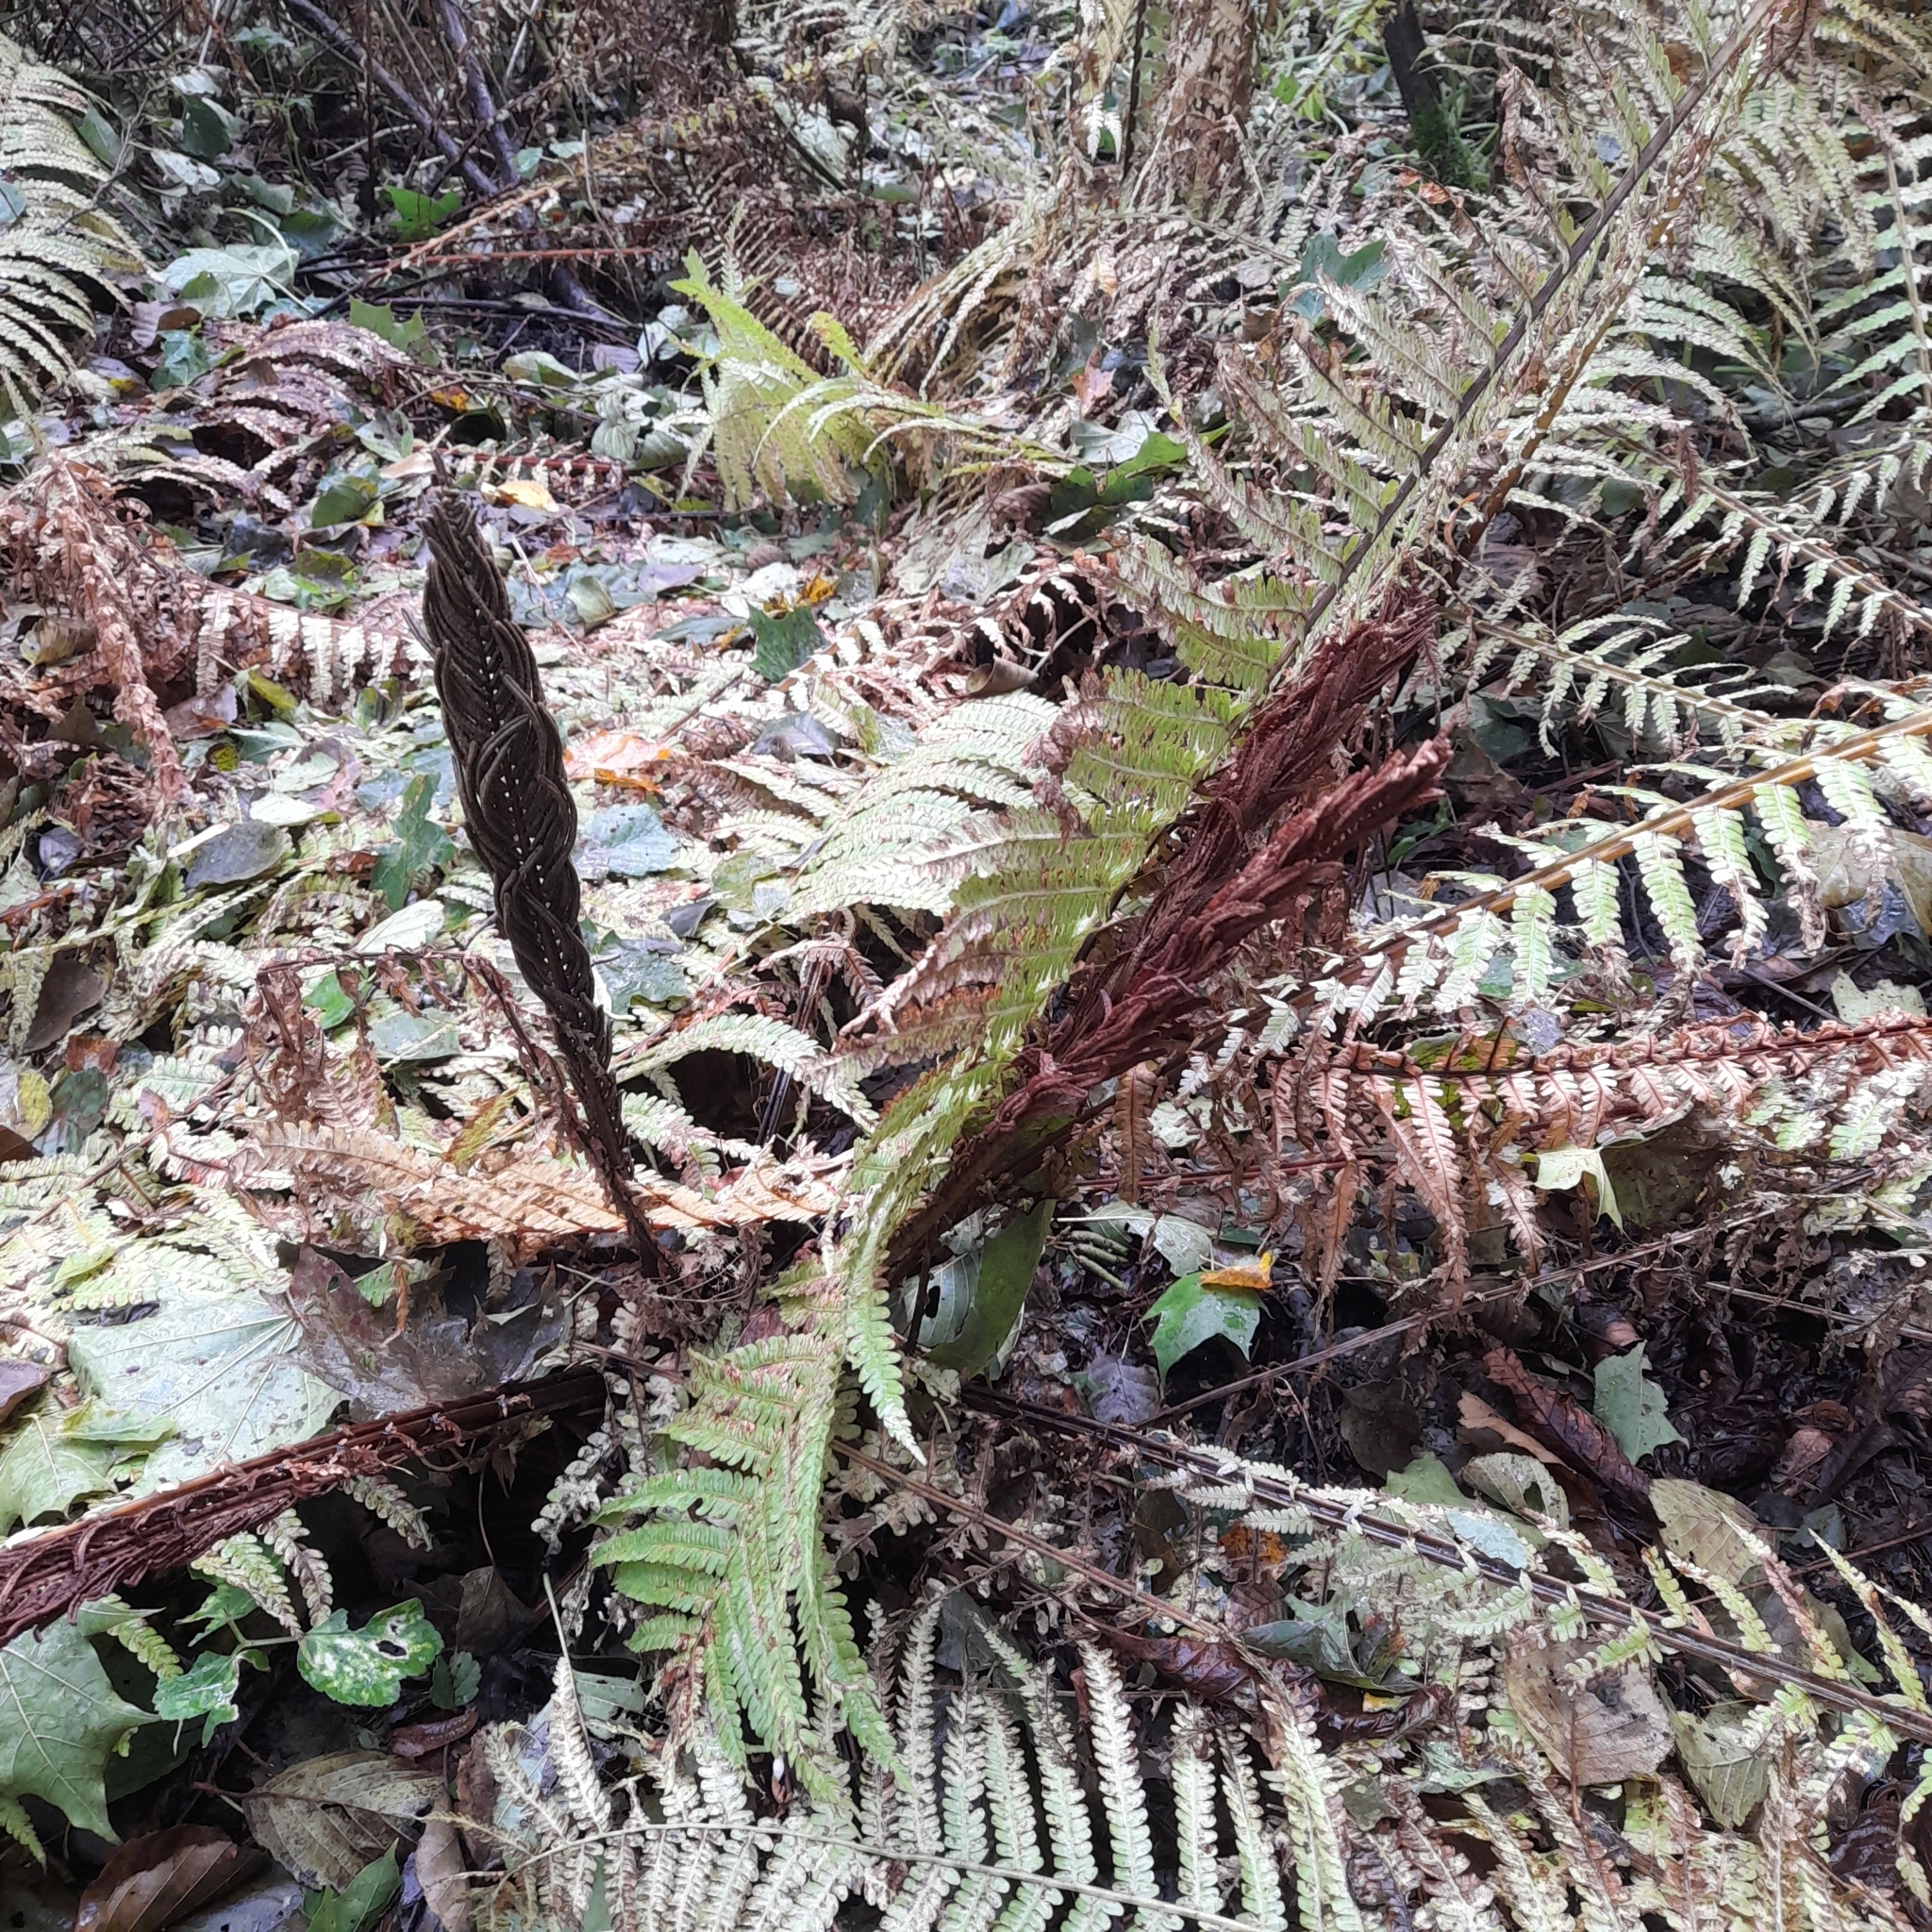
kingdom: Plantae
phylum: Tracheophyta
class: Polypodiopsida
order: Polypodiales
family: Onocleaceae
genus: Matteuccia
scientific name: Matteuccia struthiopteris
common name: Ostrich fern
